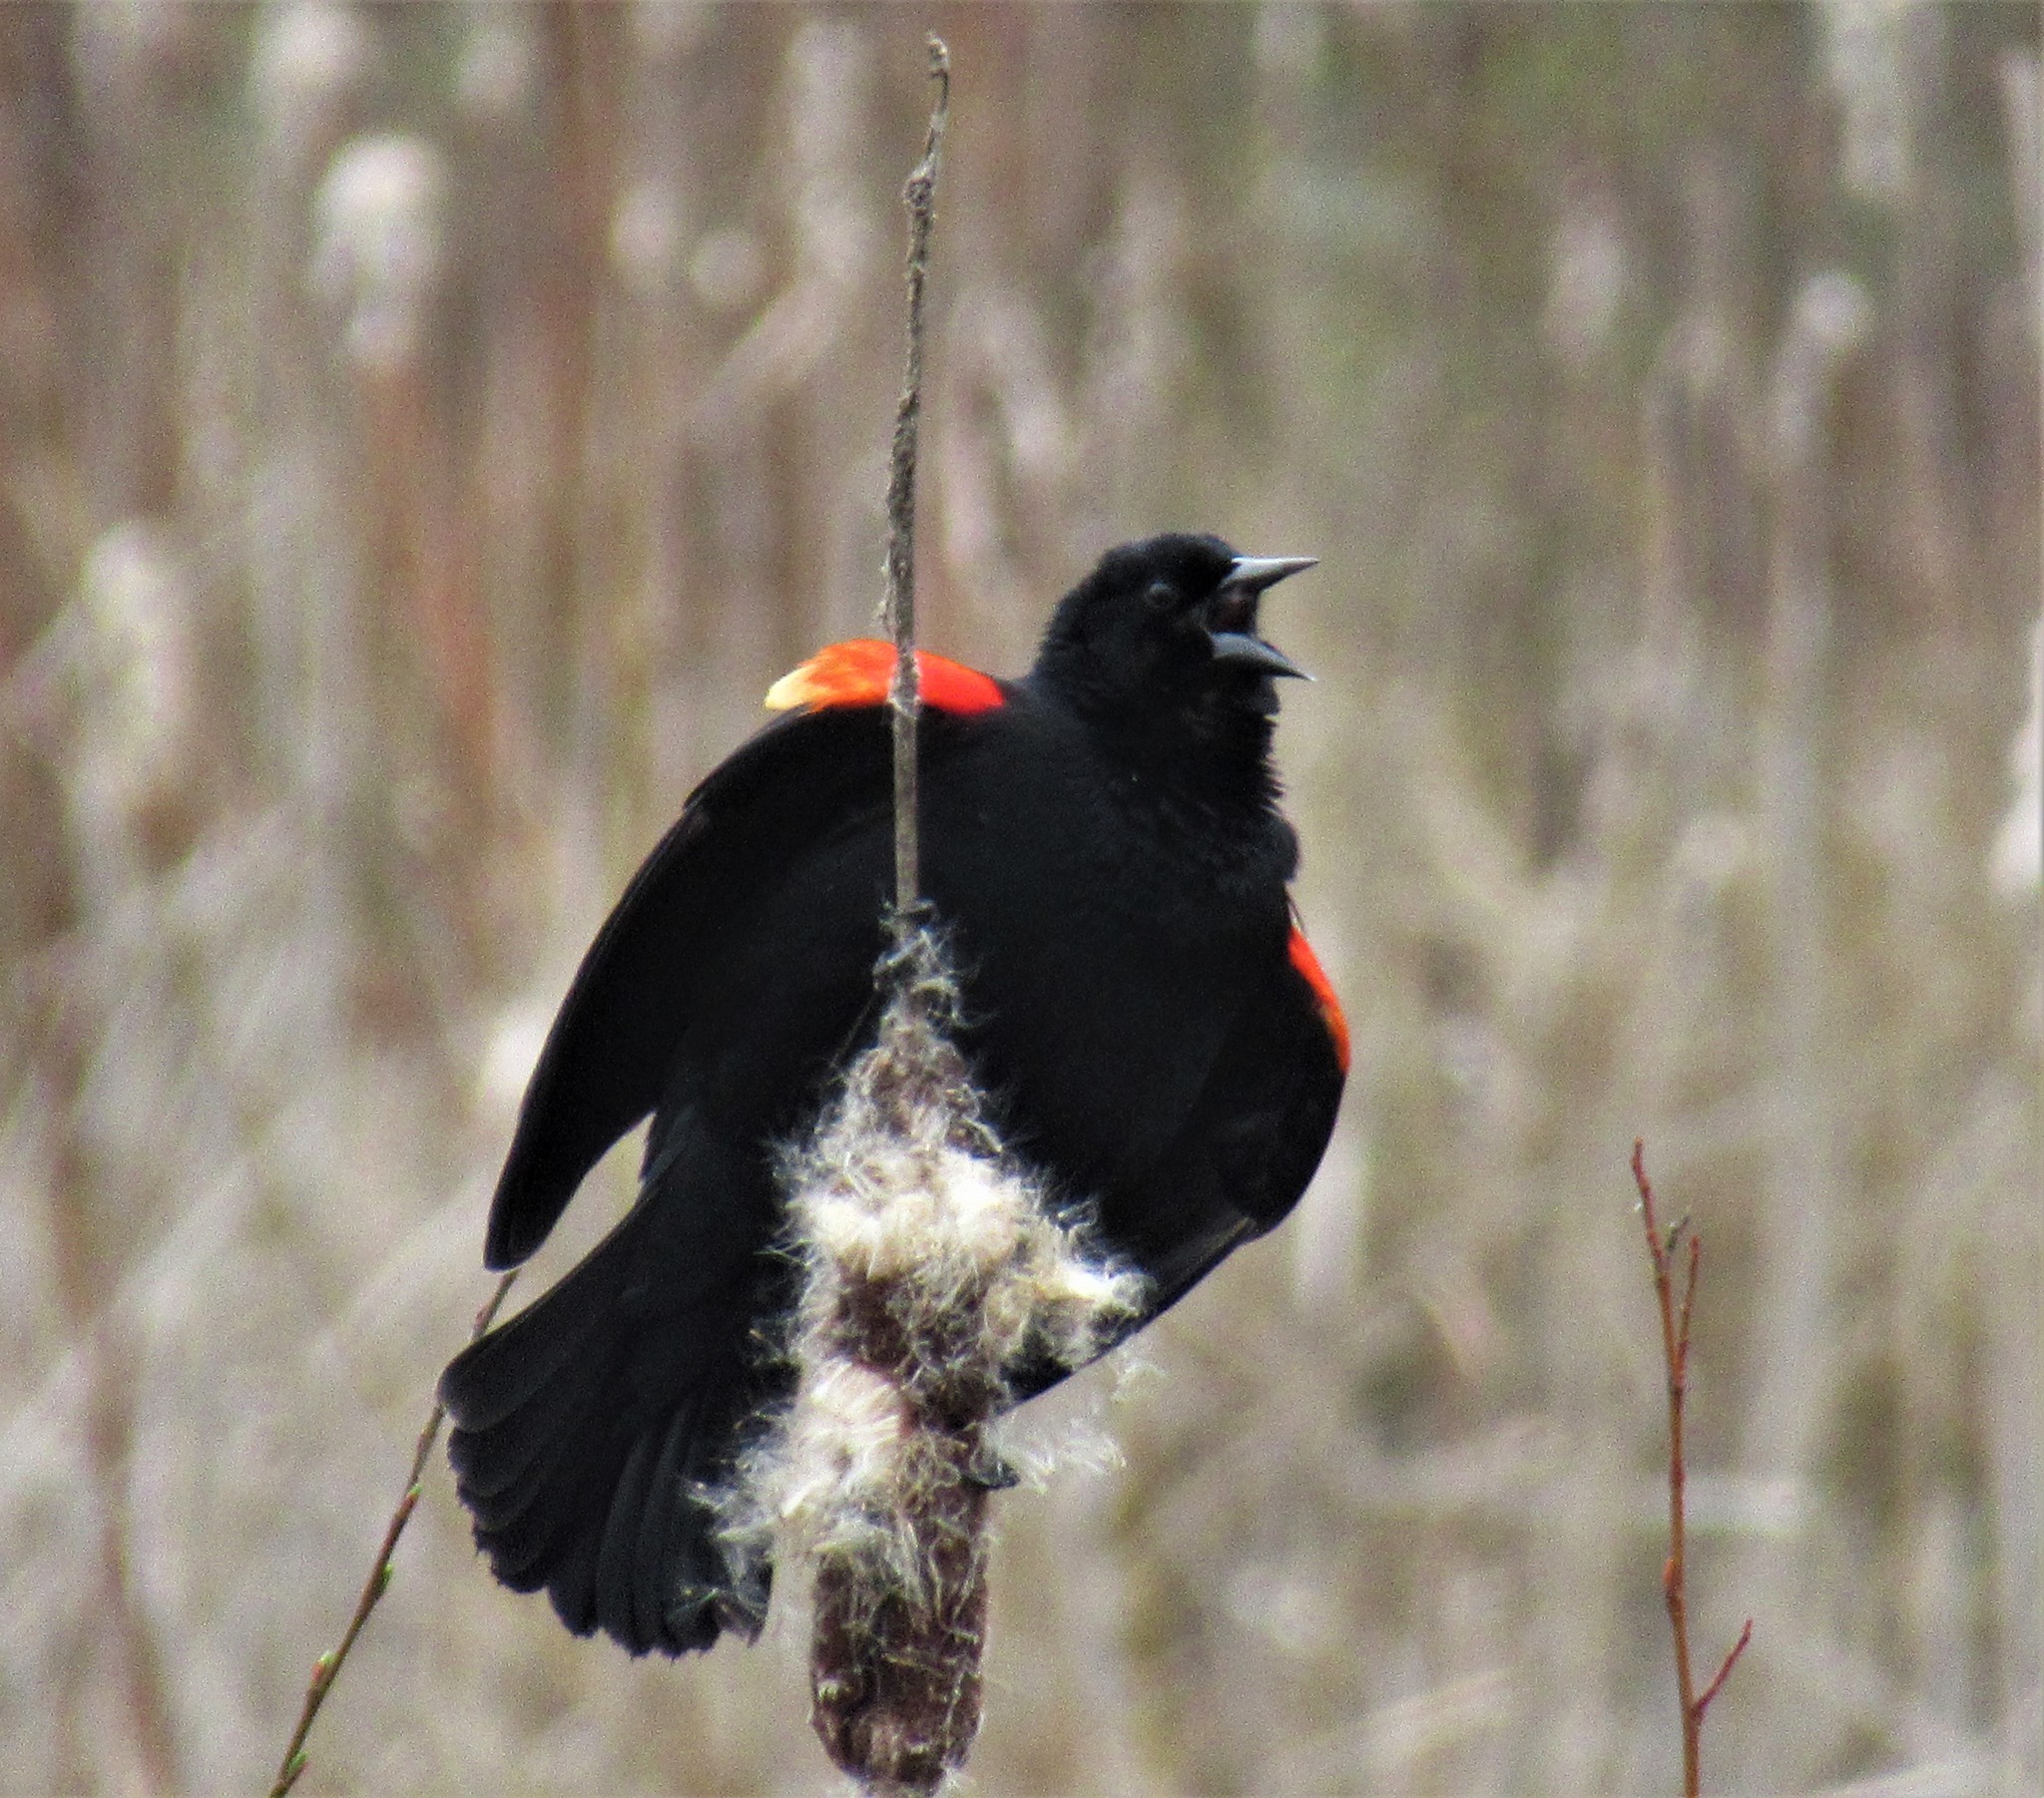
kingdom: Animalia
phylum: Chordata
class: Aves
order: Passeriformes
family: Icteridae
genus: Agelaius
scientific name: Agelaius phoeniceus
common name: Red-winged blackbird
